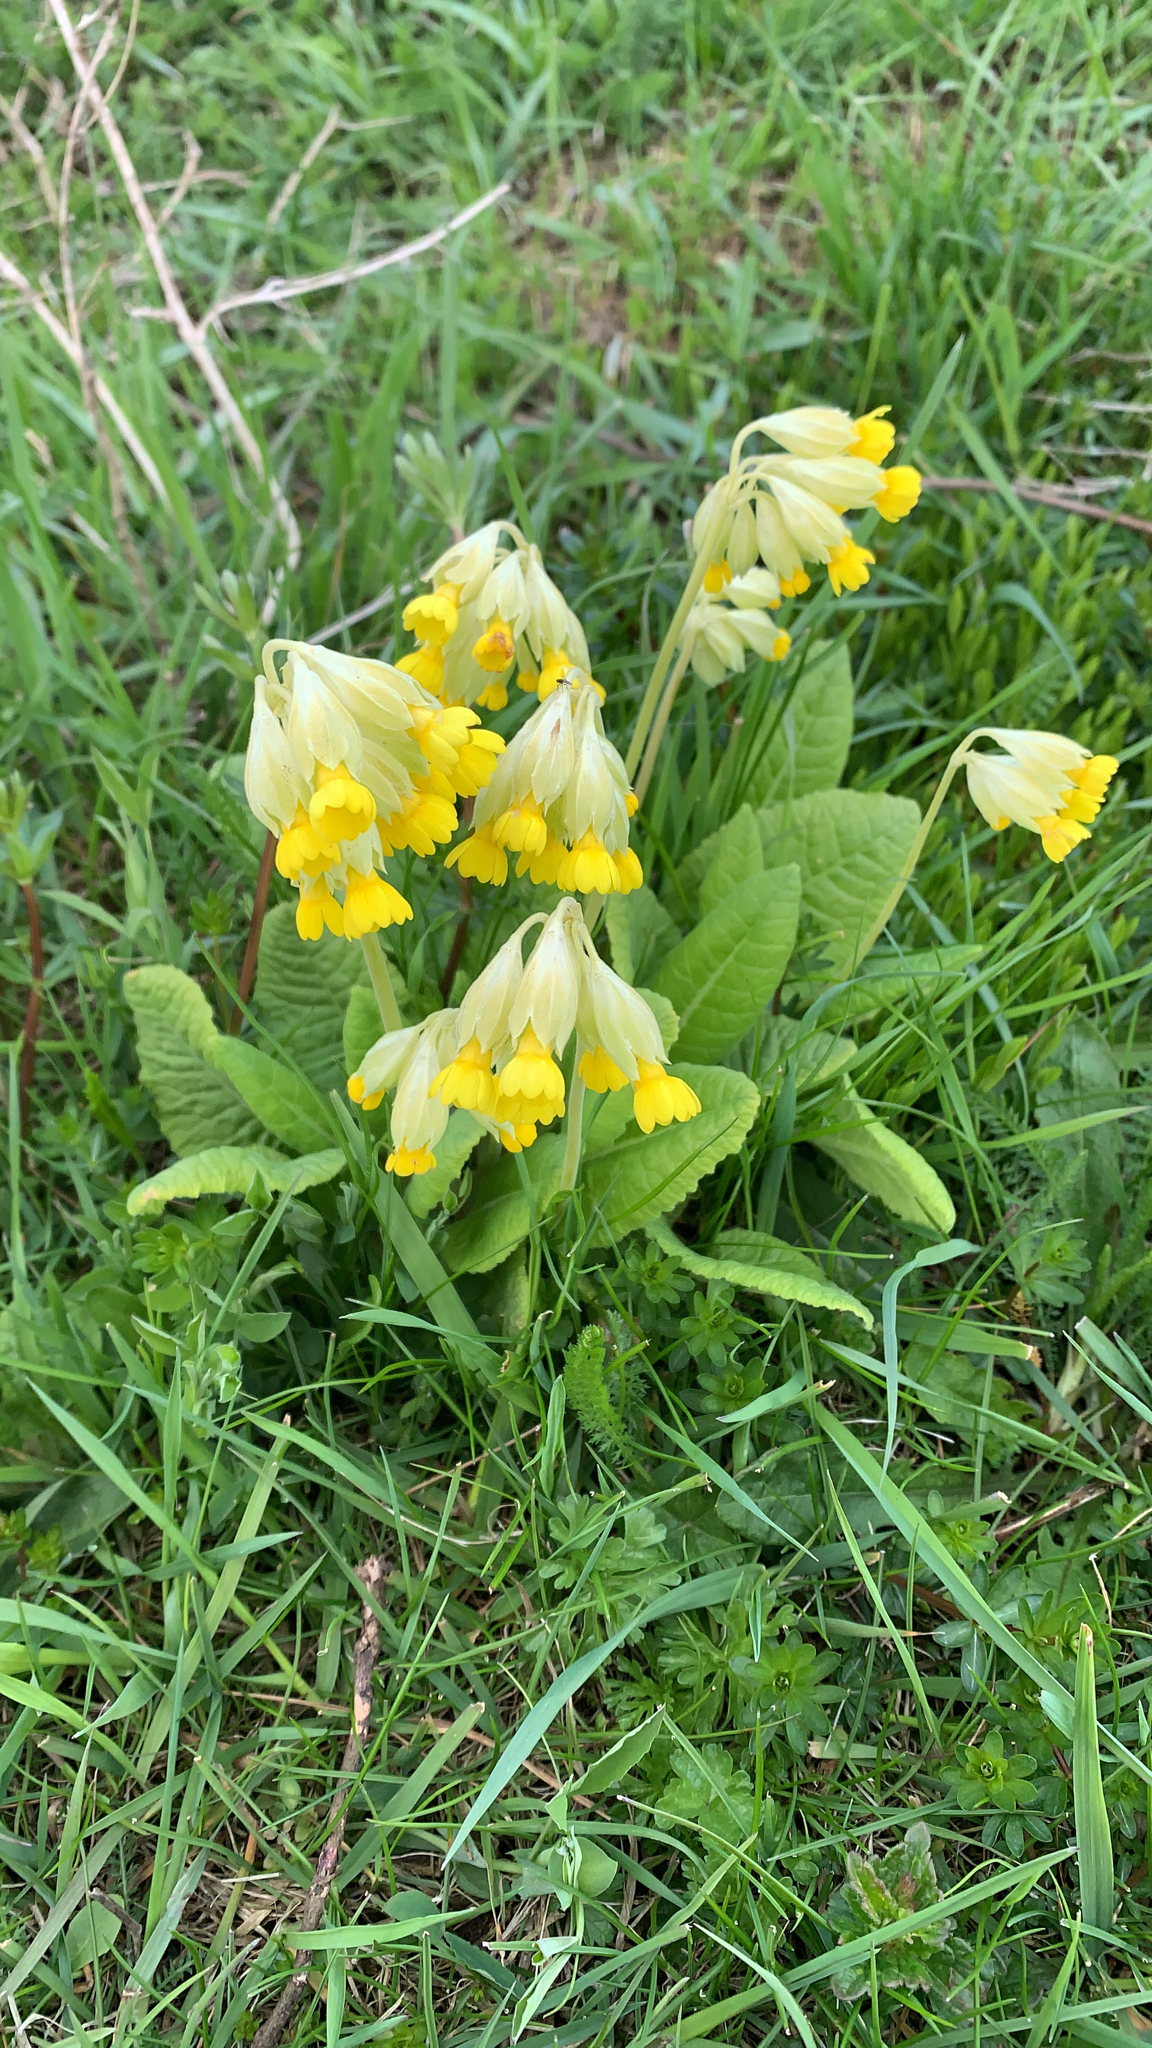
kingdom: Plantae
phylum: Tracheophyta
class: Magnoliopsida
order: Ericales
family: Primulaceae
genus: Primula
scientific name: Primula veris
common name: Cowslip
